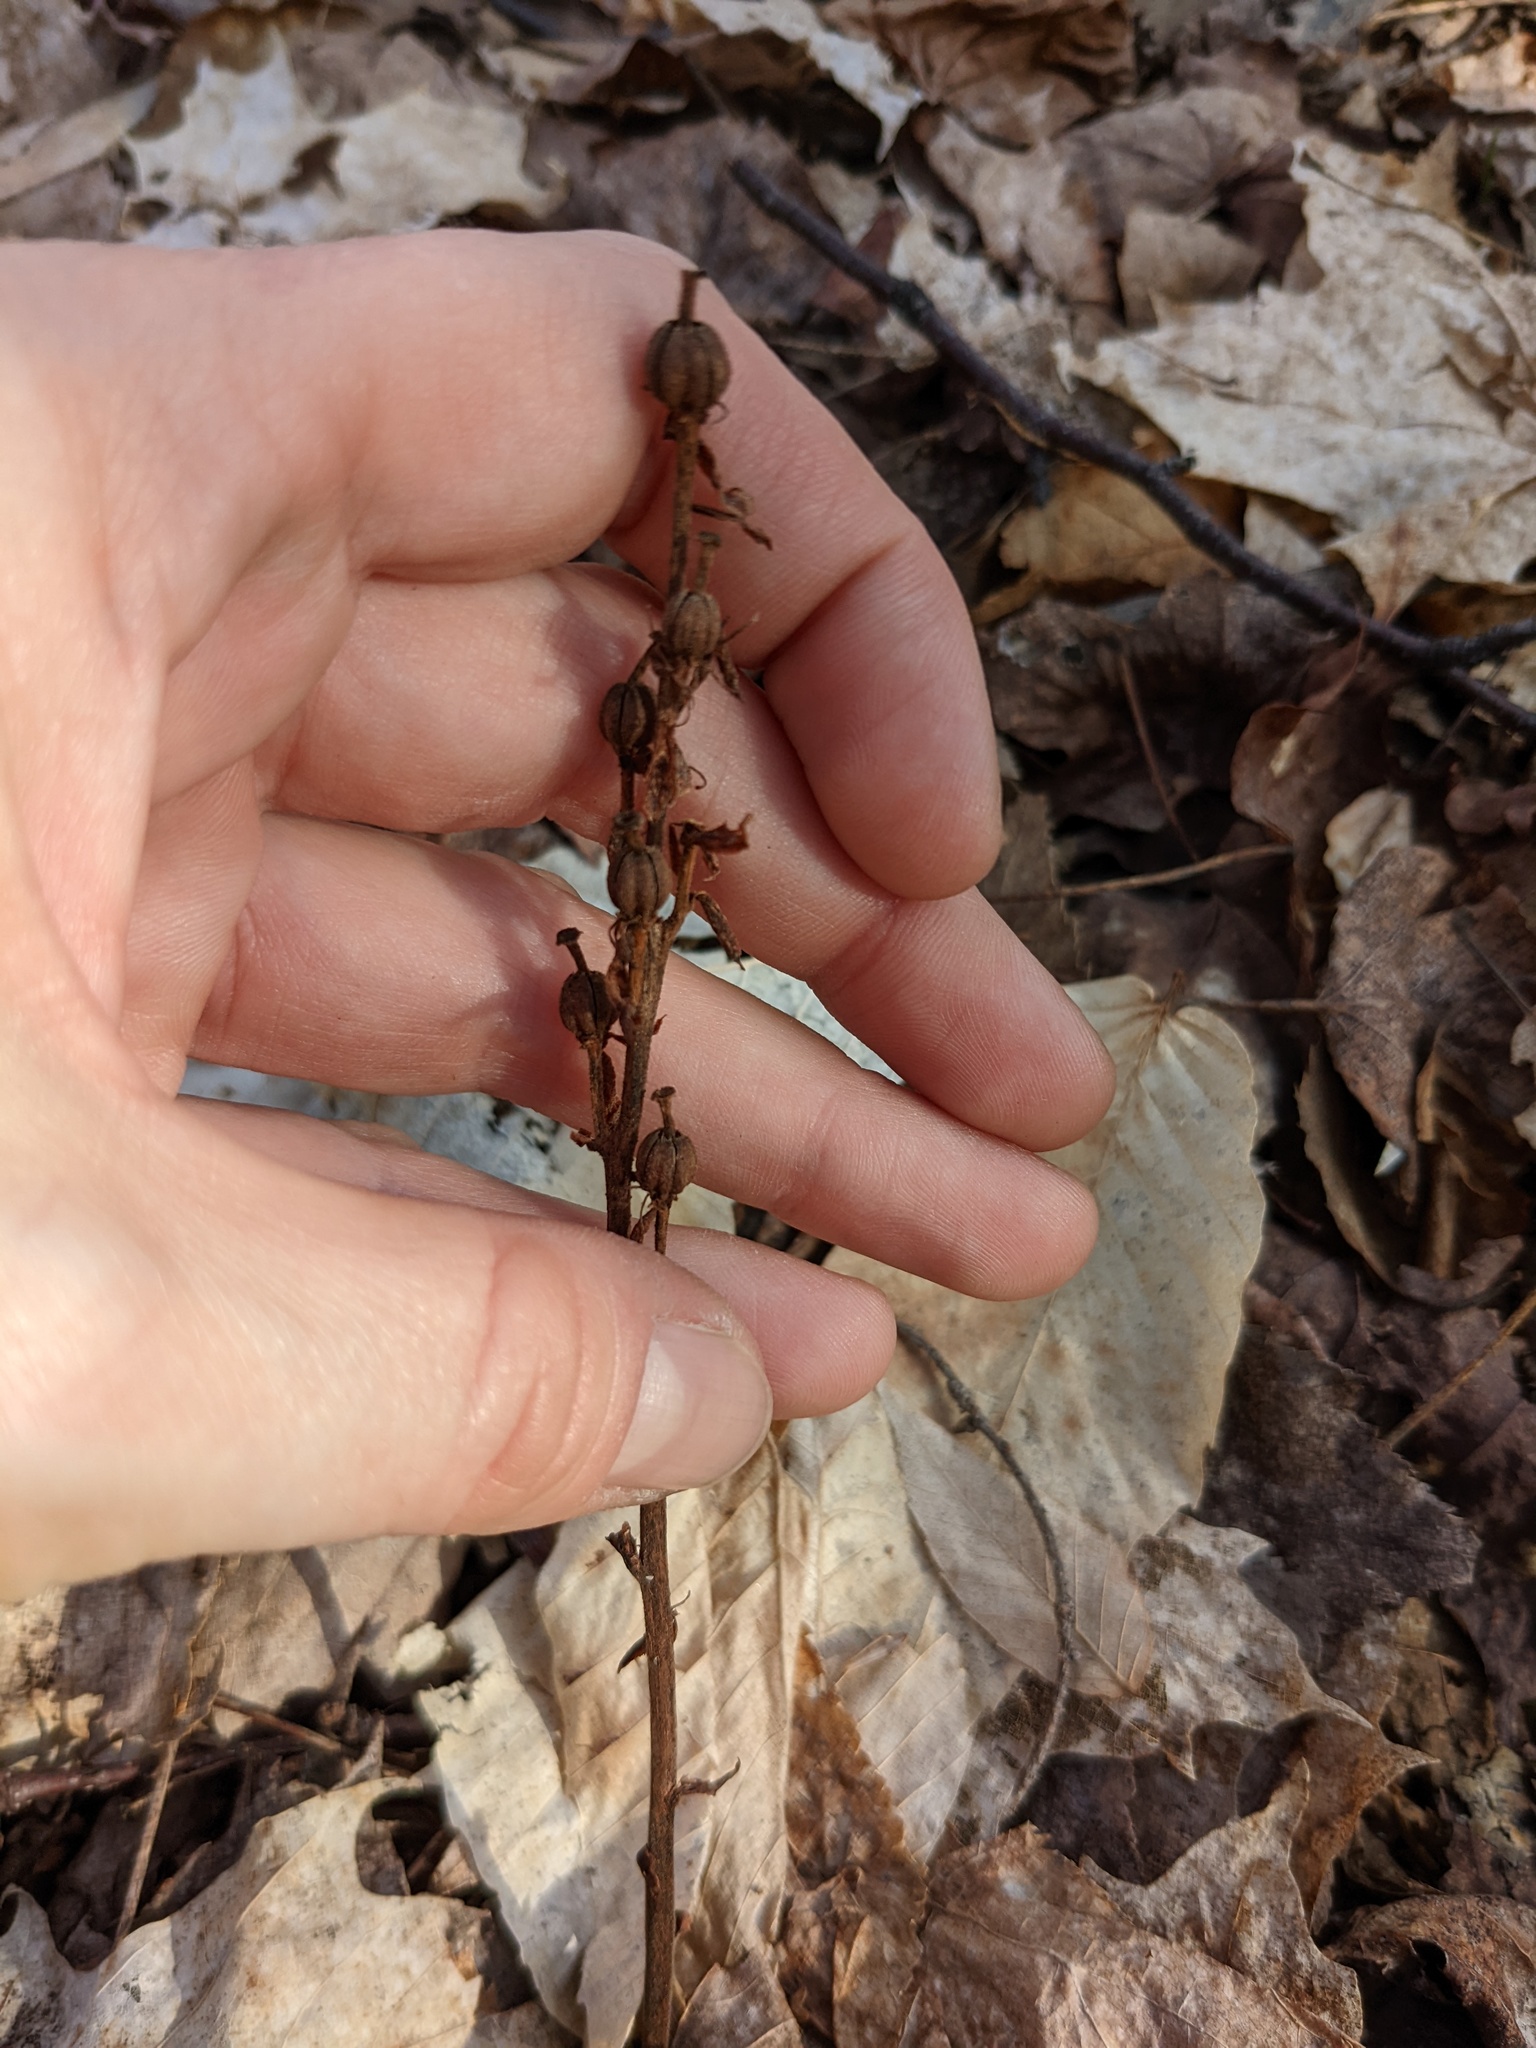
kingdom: Plantae
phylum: Tracheophyta
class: Magnoliopsida
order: Ericales
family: Ericaceae
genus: Hypopitys
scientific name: Hypopitys monotropa
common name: Yellow bird's-nest
